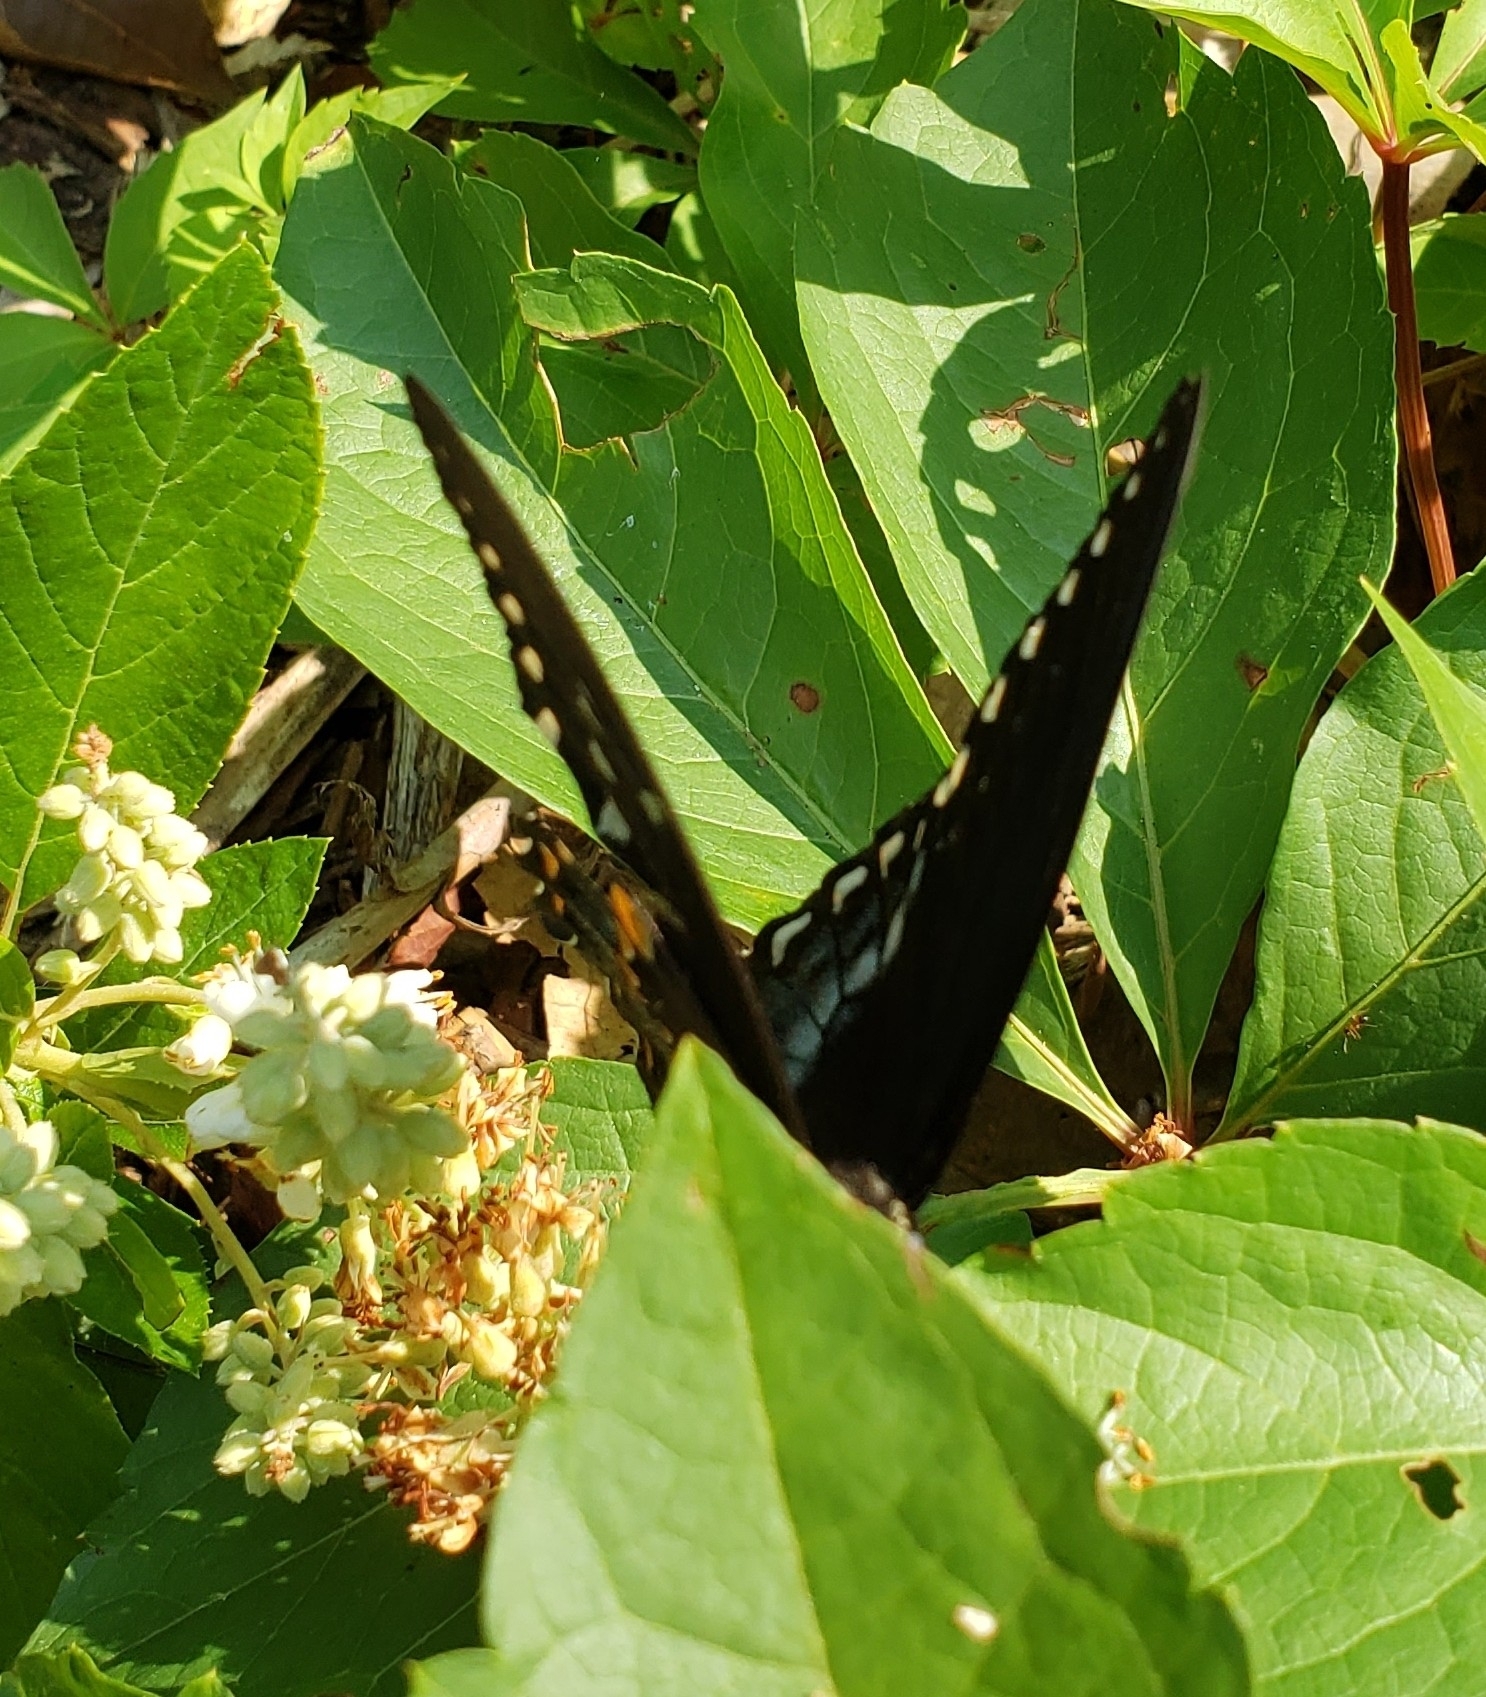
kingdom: Animalia
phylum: Arthropoda
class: Insecta
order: Lepidoptera
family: Papilionidae
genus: Papilio
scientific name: Papilio troilus
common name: Spicebush swallowtail
